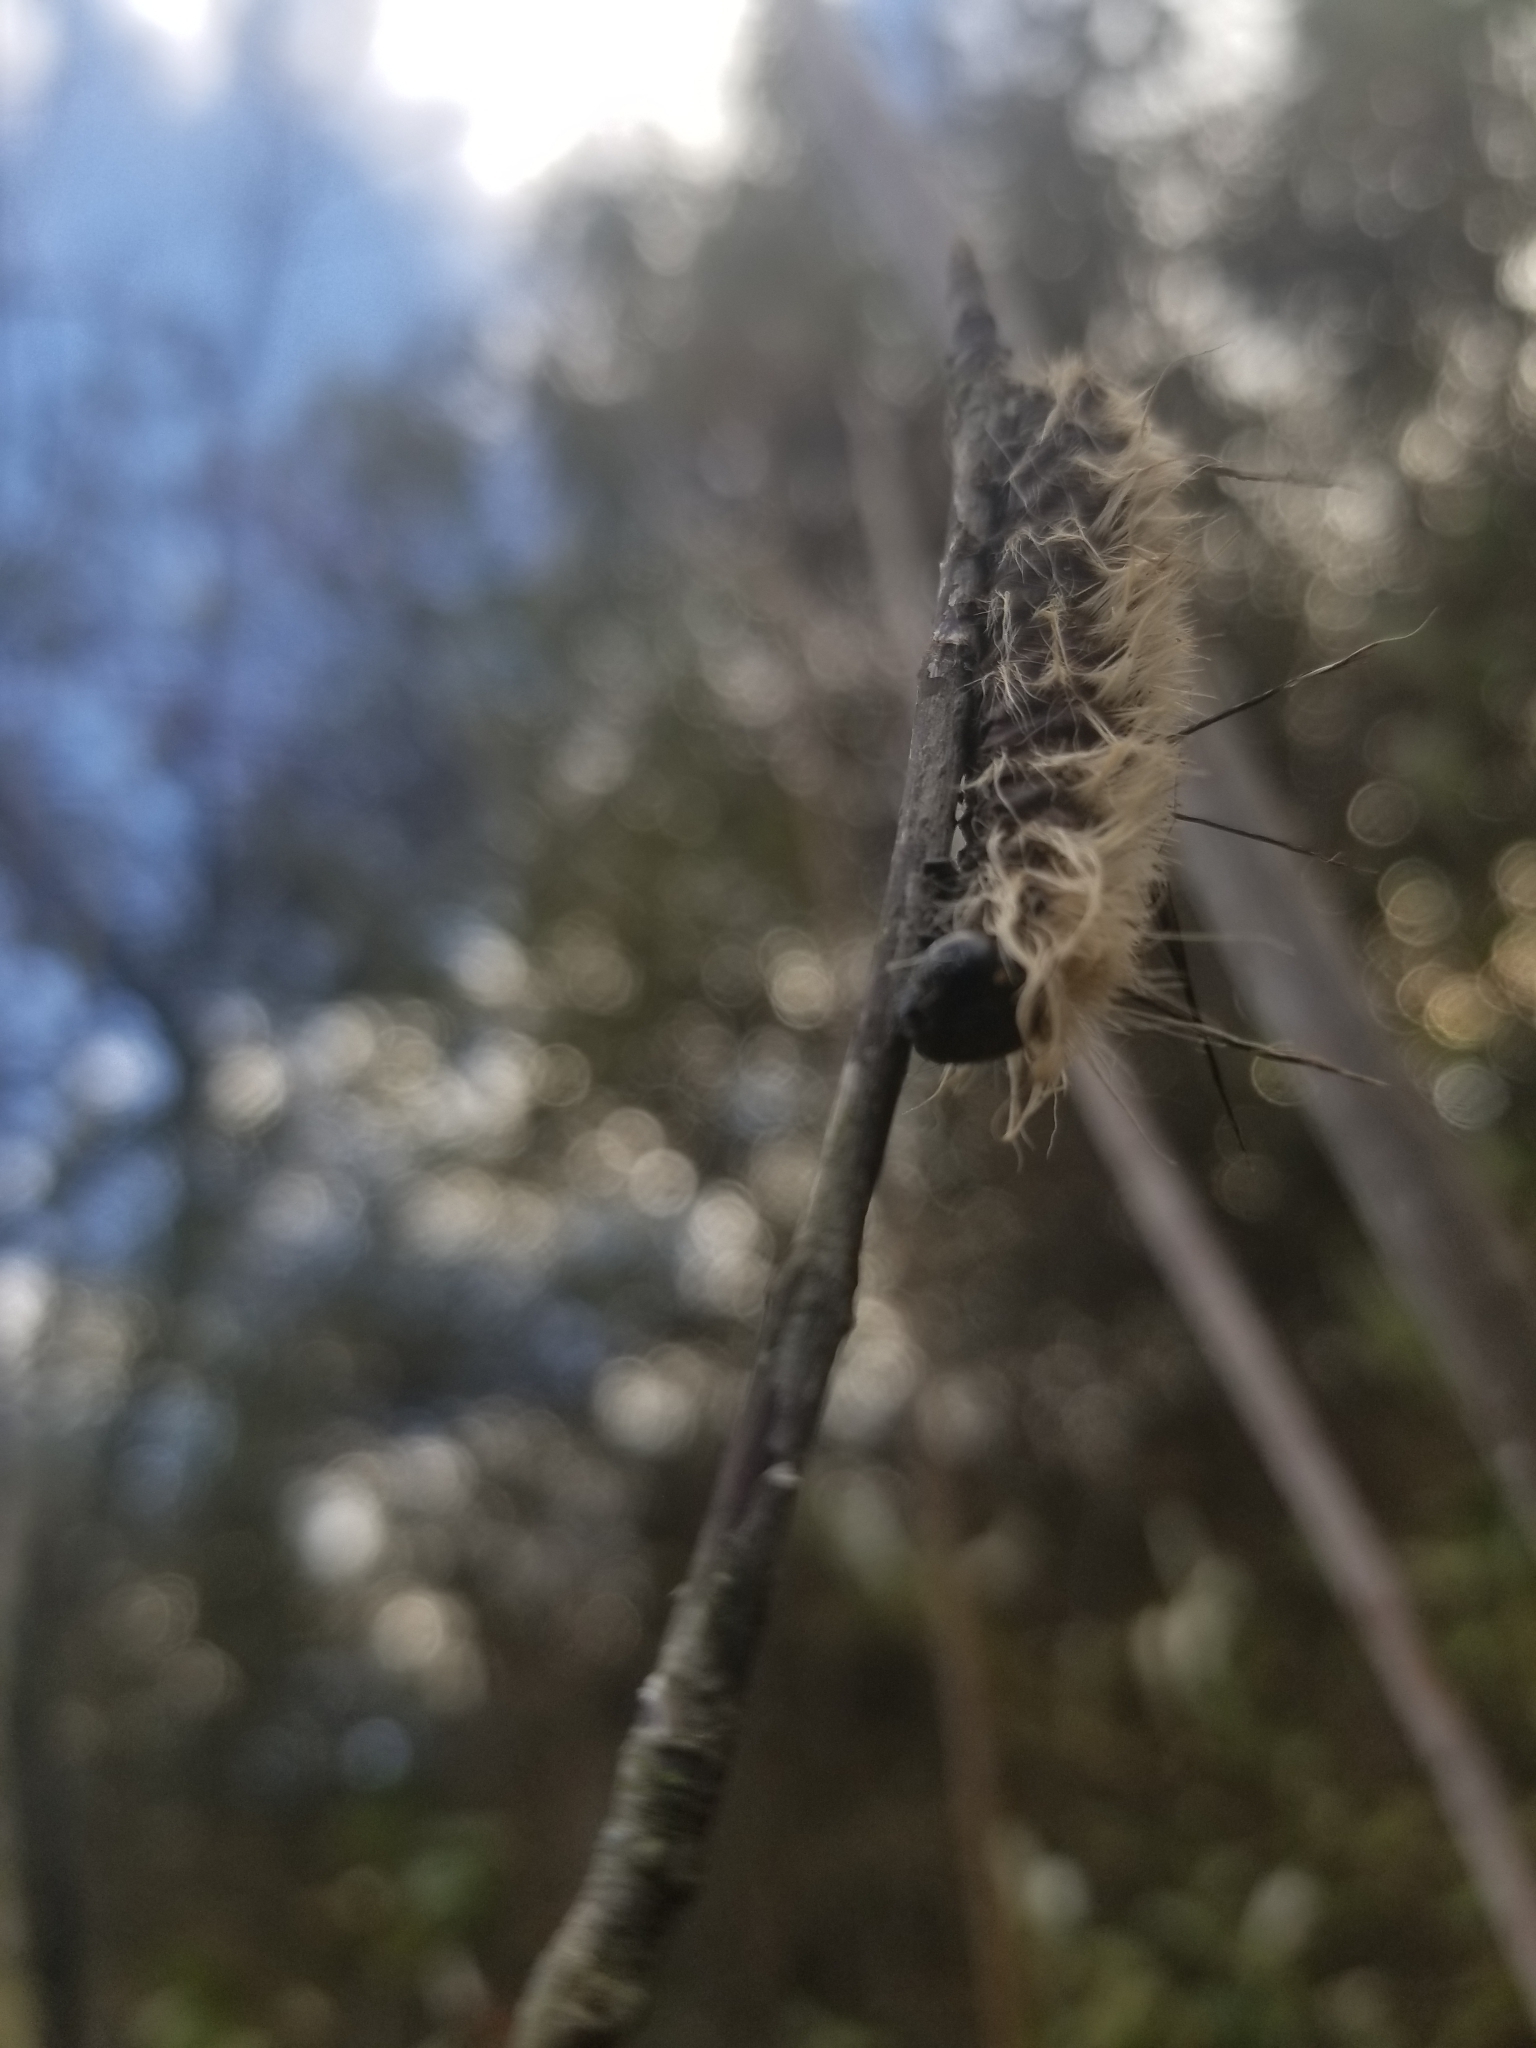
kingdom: Animalia
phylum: Arthropoda
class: Insecta
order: Lepidoptera
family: Noctuidae
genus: Acronicta
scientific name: Acronicta americana
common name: American dagger
